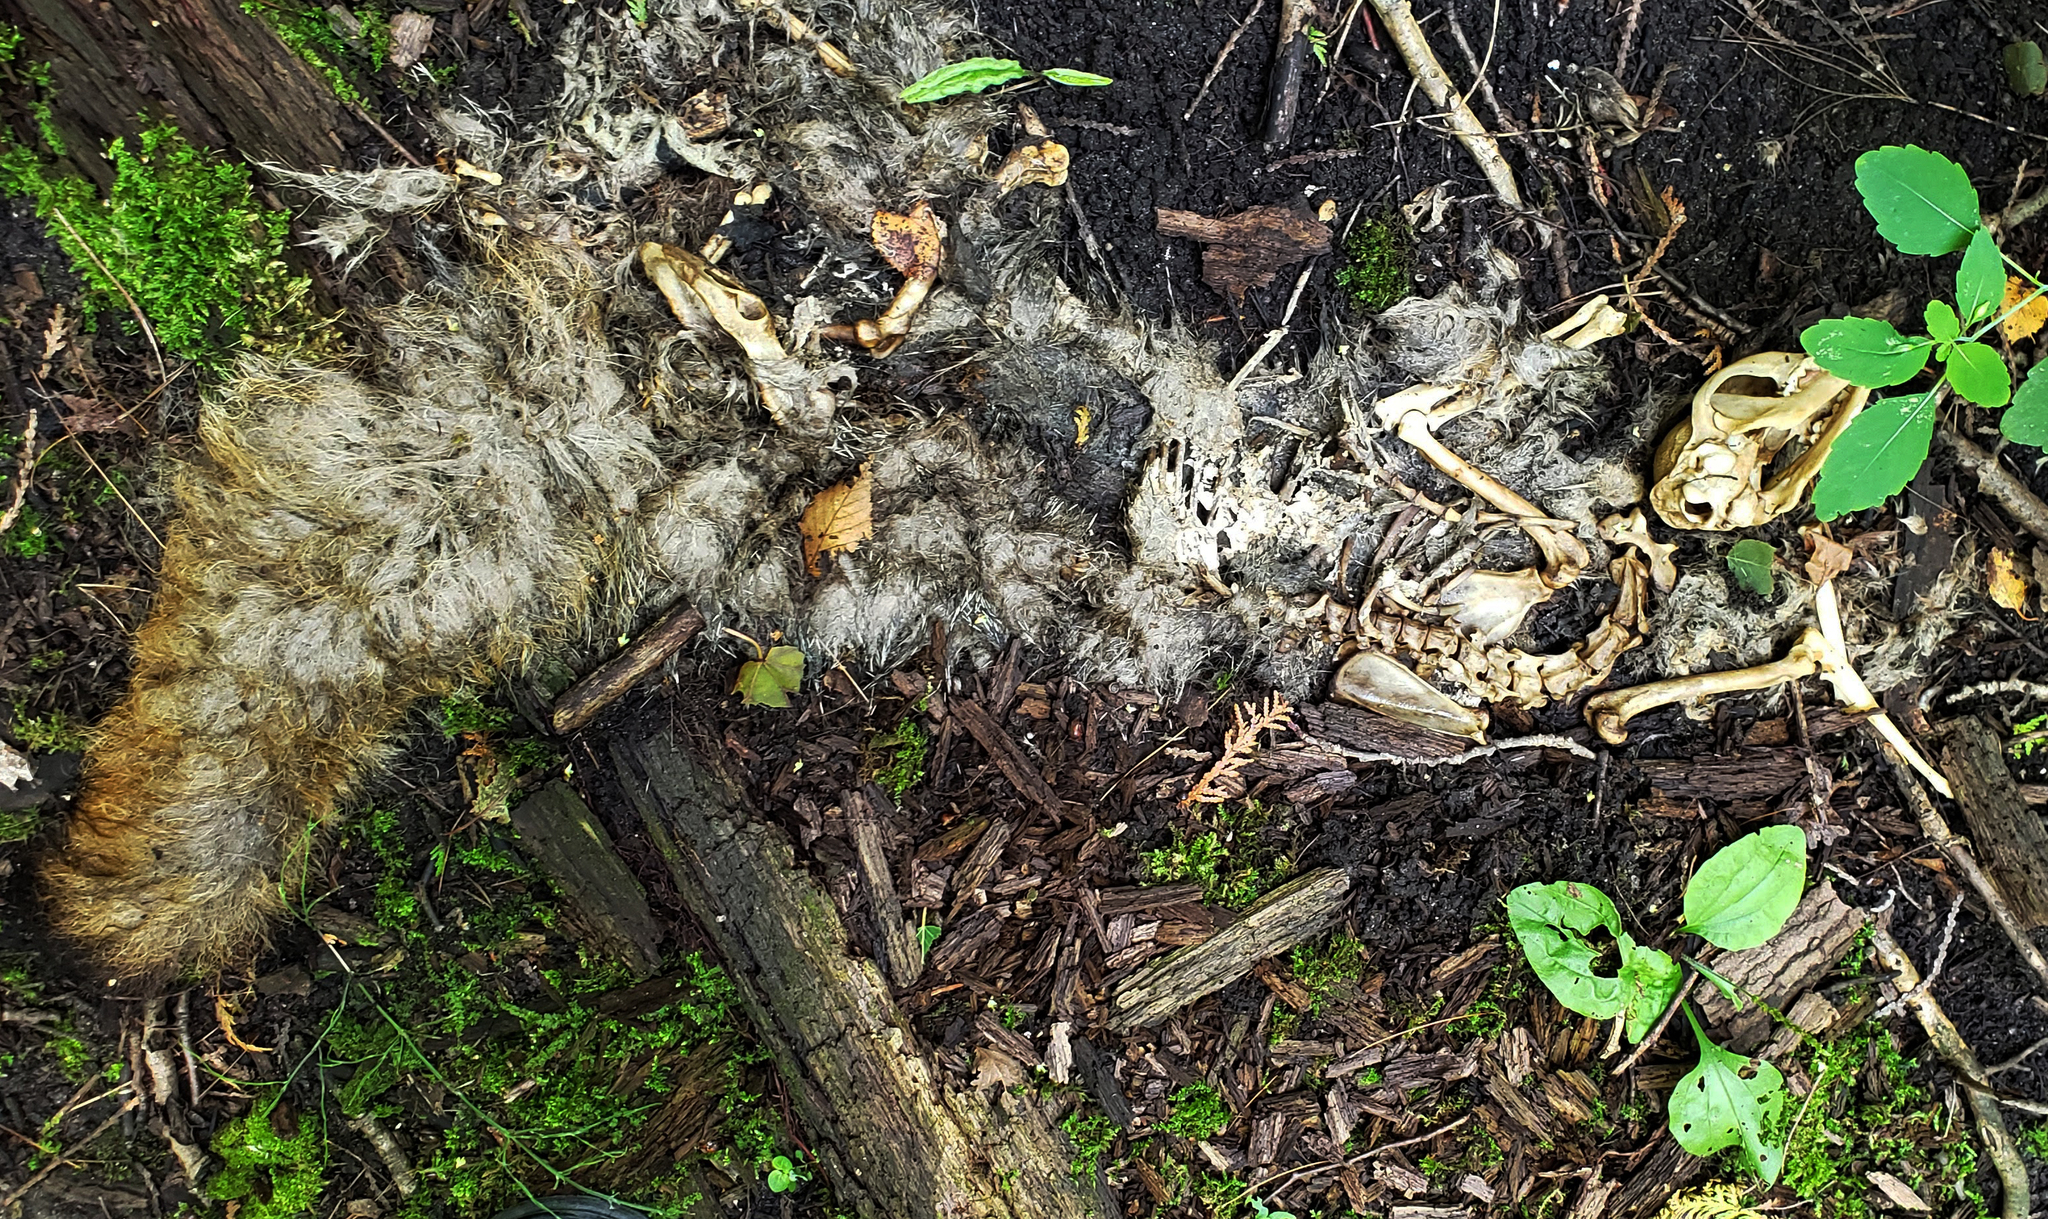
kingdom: Animalia
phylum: Chordata
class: Mammalia
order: Carnivora
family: Canidae
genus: Vulpes
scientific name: Vulpes vulpes
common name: Red fox
